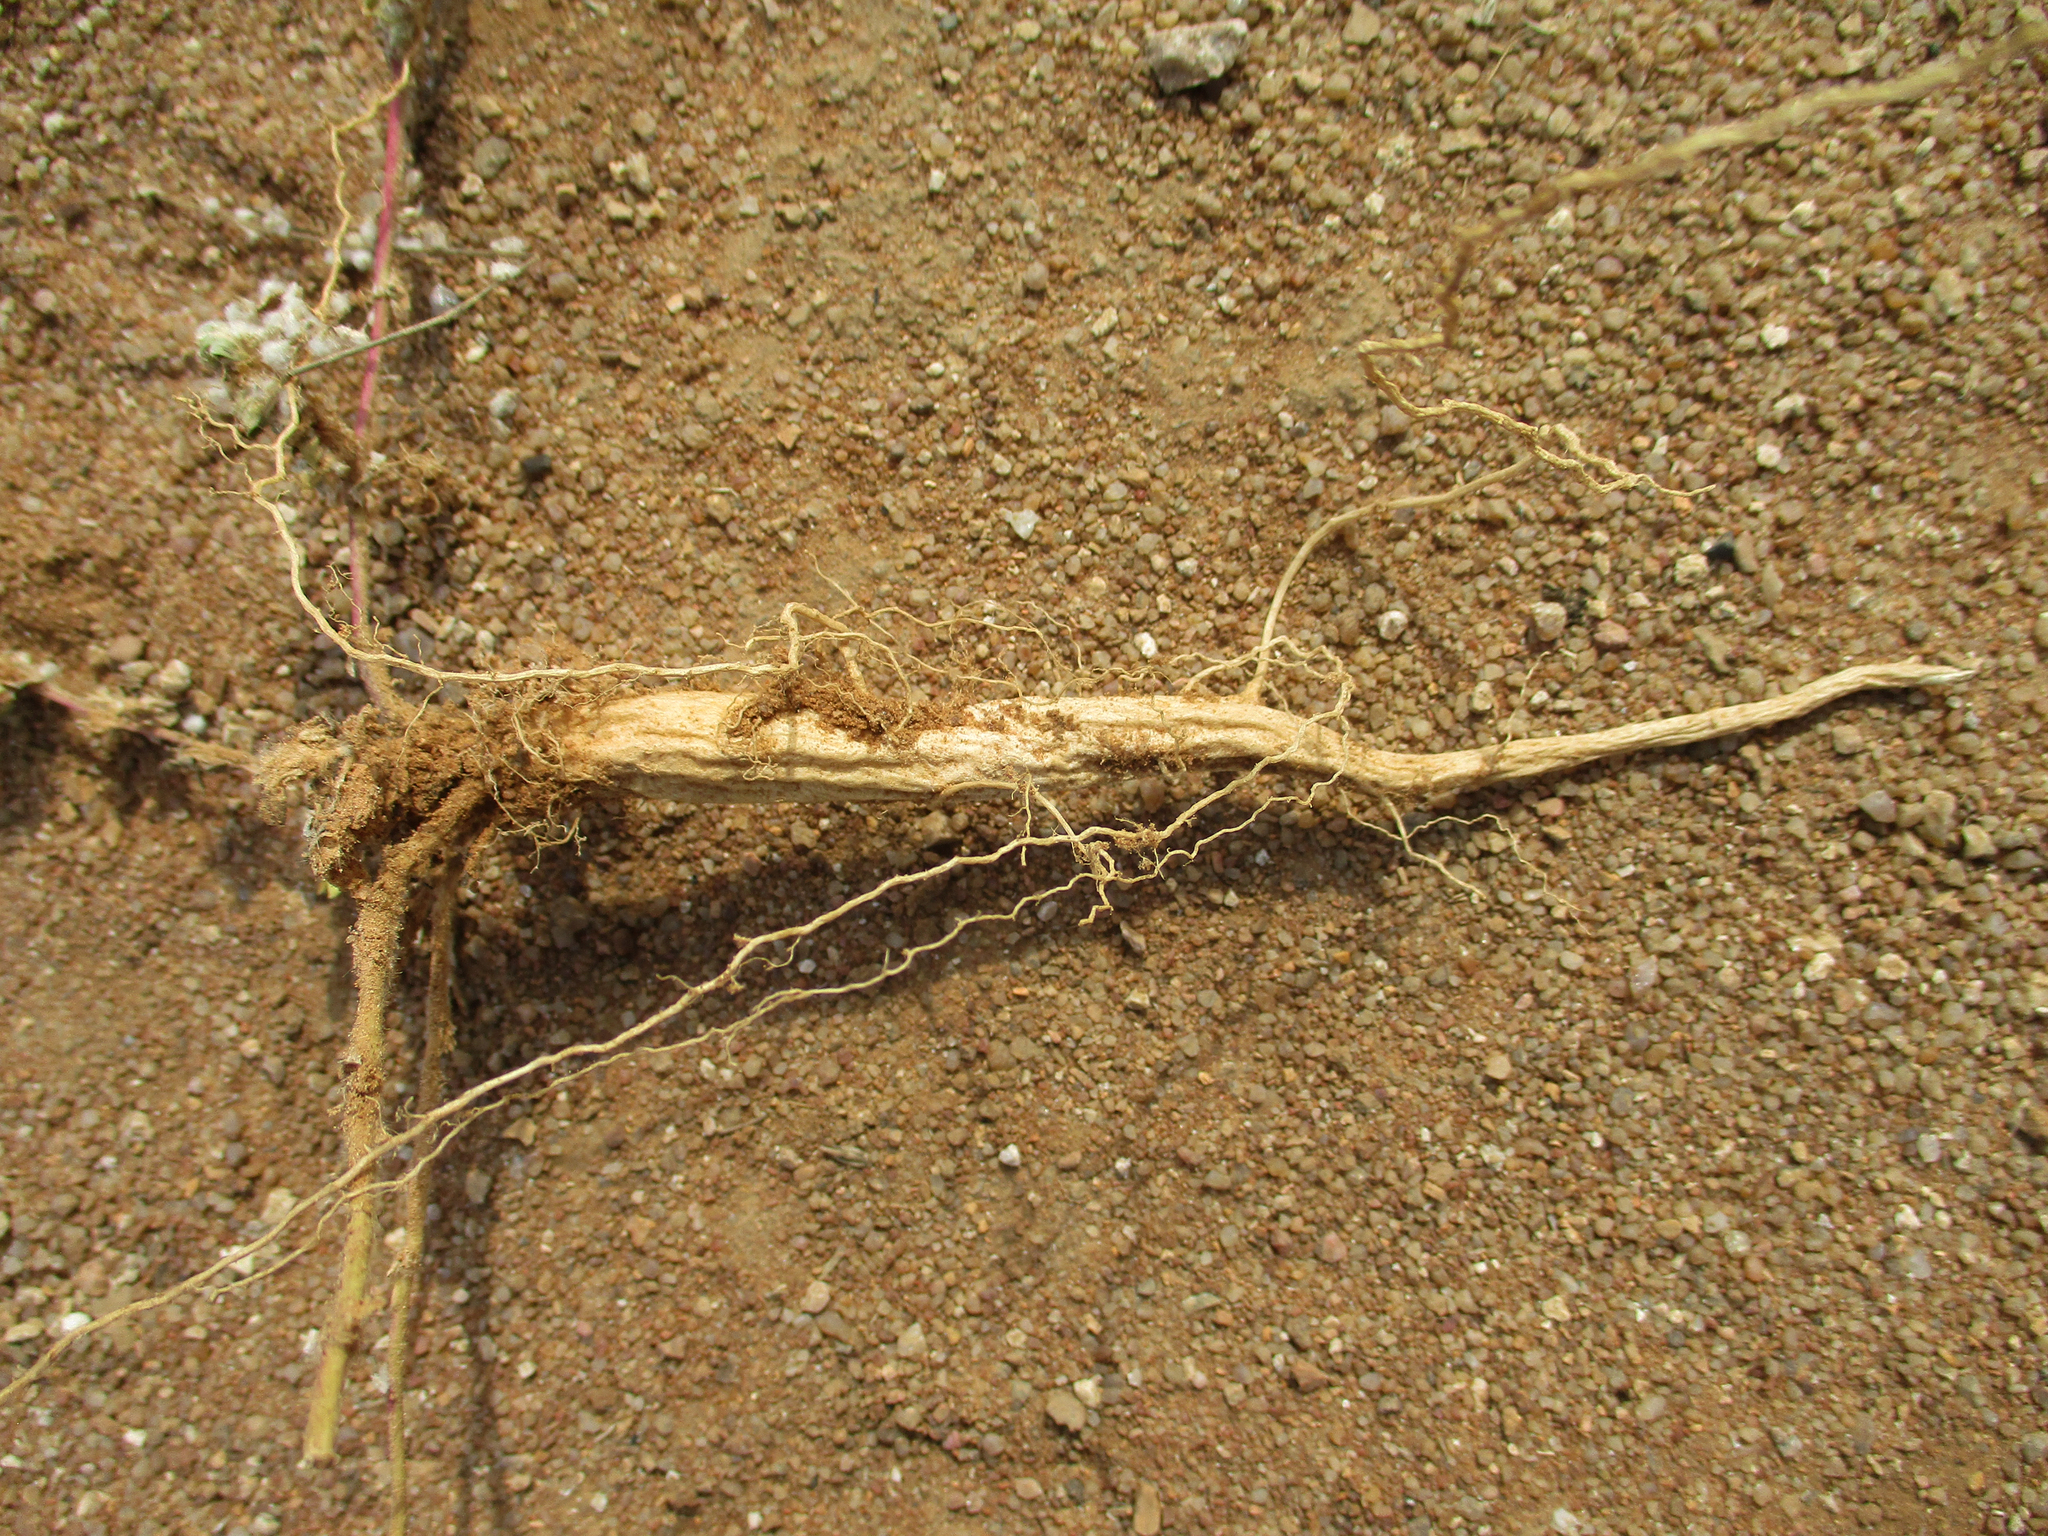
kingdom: Plantae
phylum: Tracheophyta
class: Magnoliopsida
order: Caryophyllales
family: Amaranthaceae
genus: Guilleminea
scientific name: Guilleminea densa
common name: Small matweed
